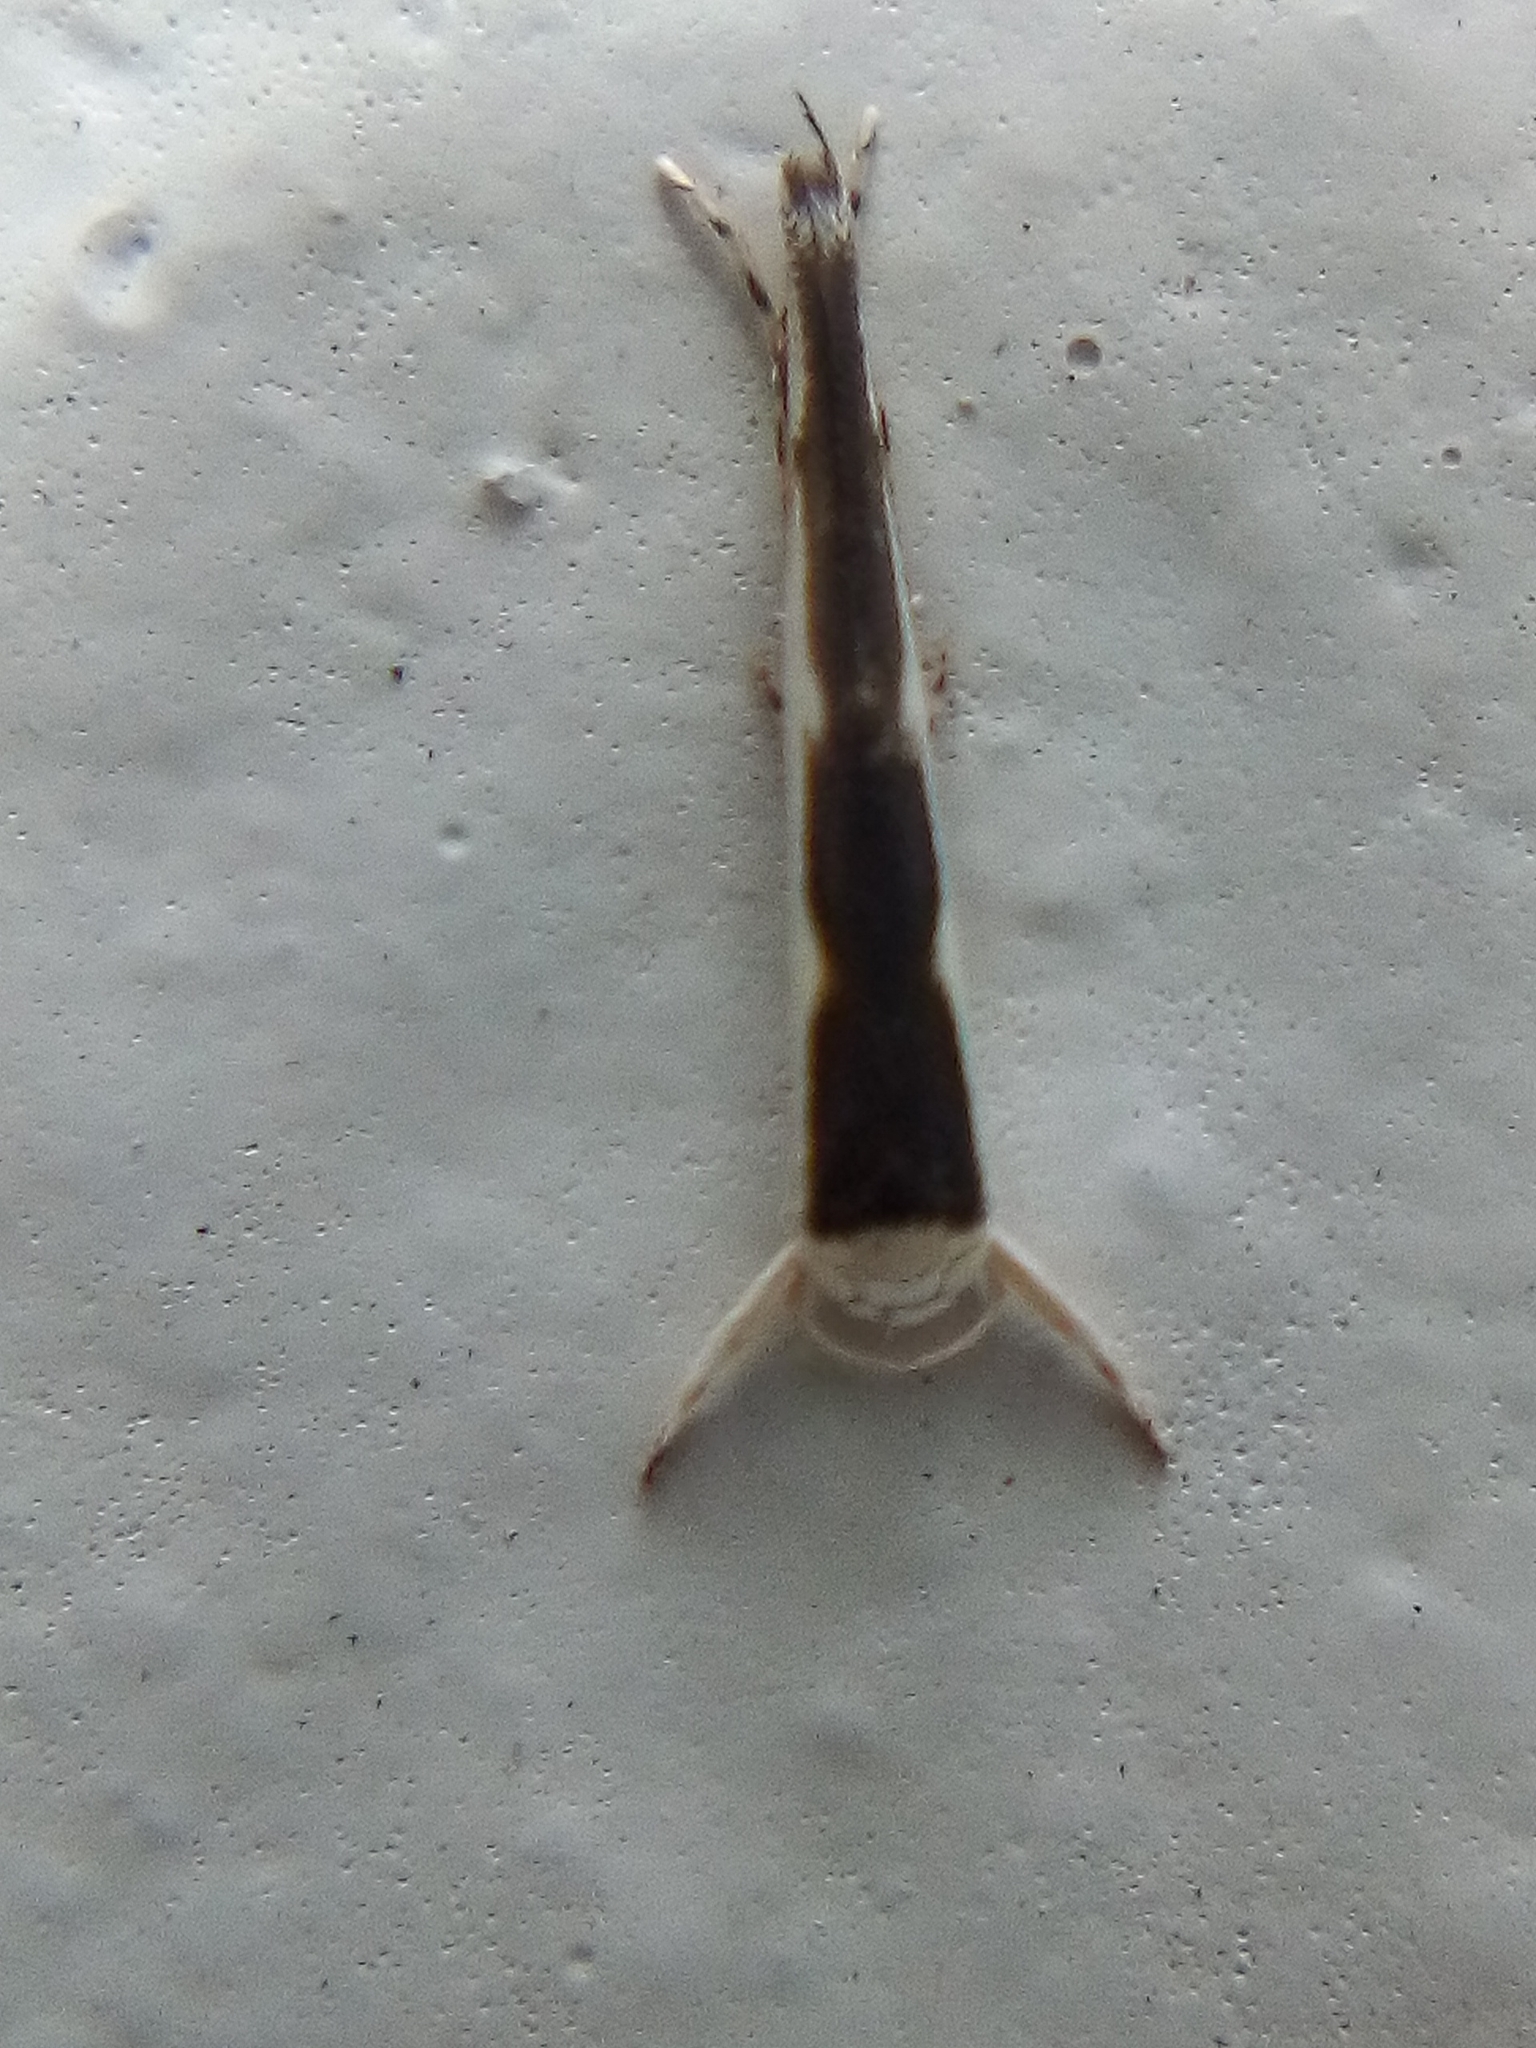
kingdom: Animalia
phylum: Arthropoda
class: Insecta
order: Lepidoptera
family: Roeslerstammiidae
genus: Vanicela
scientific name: Vanicela disjunctella
